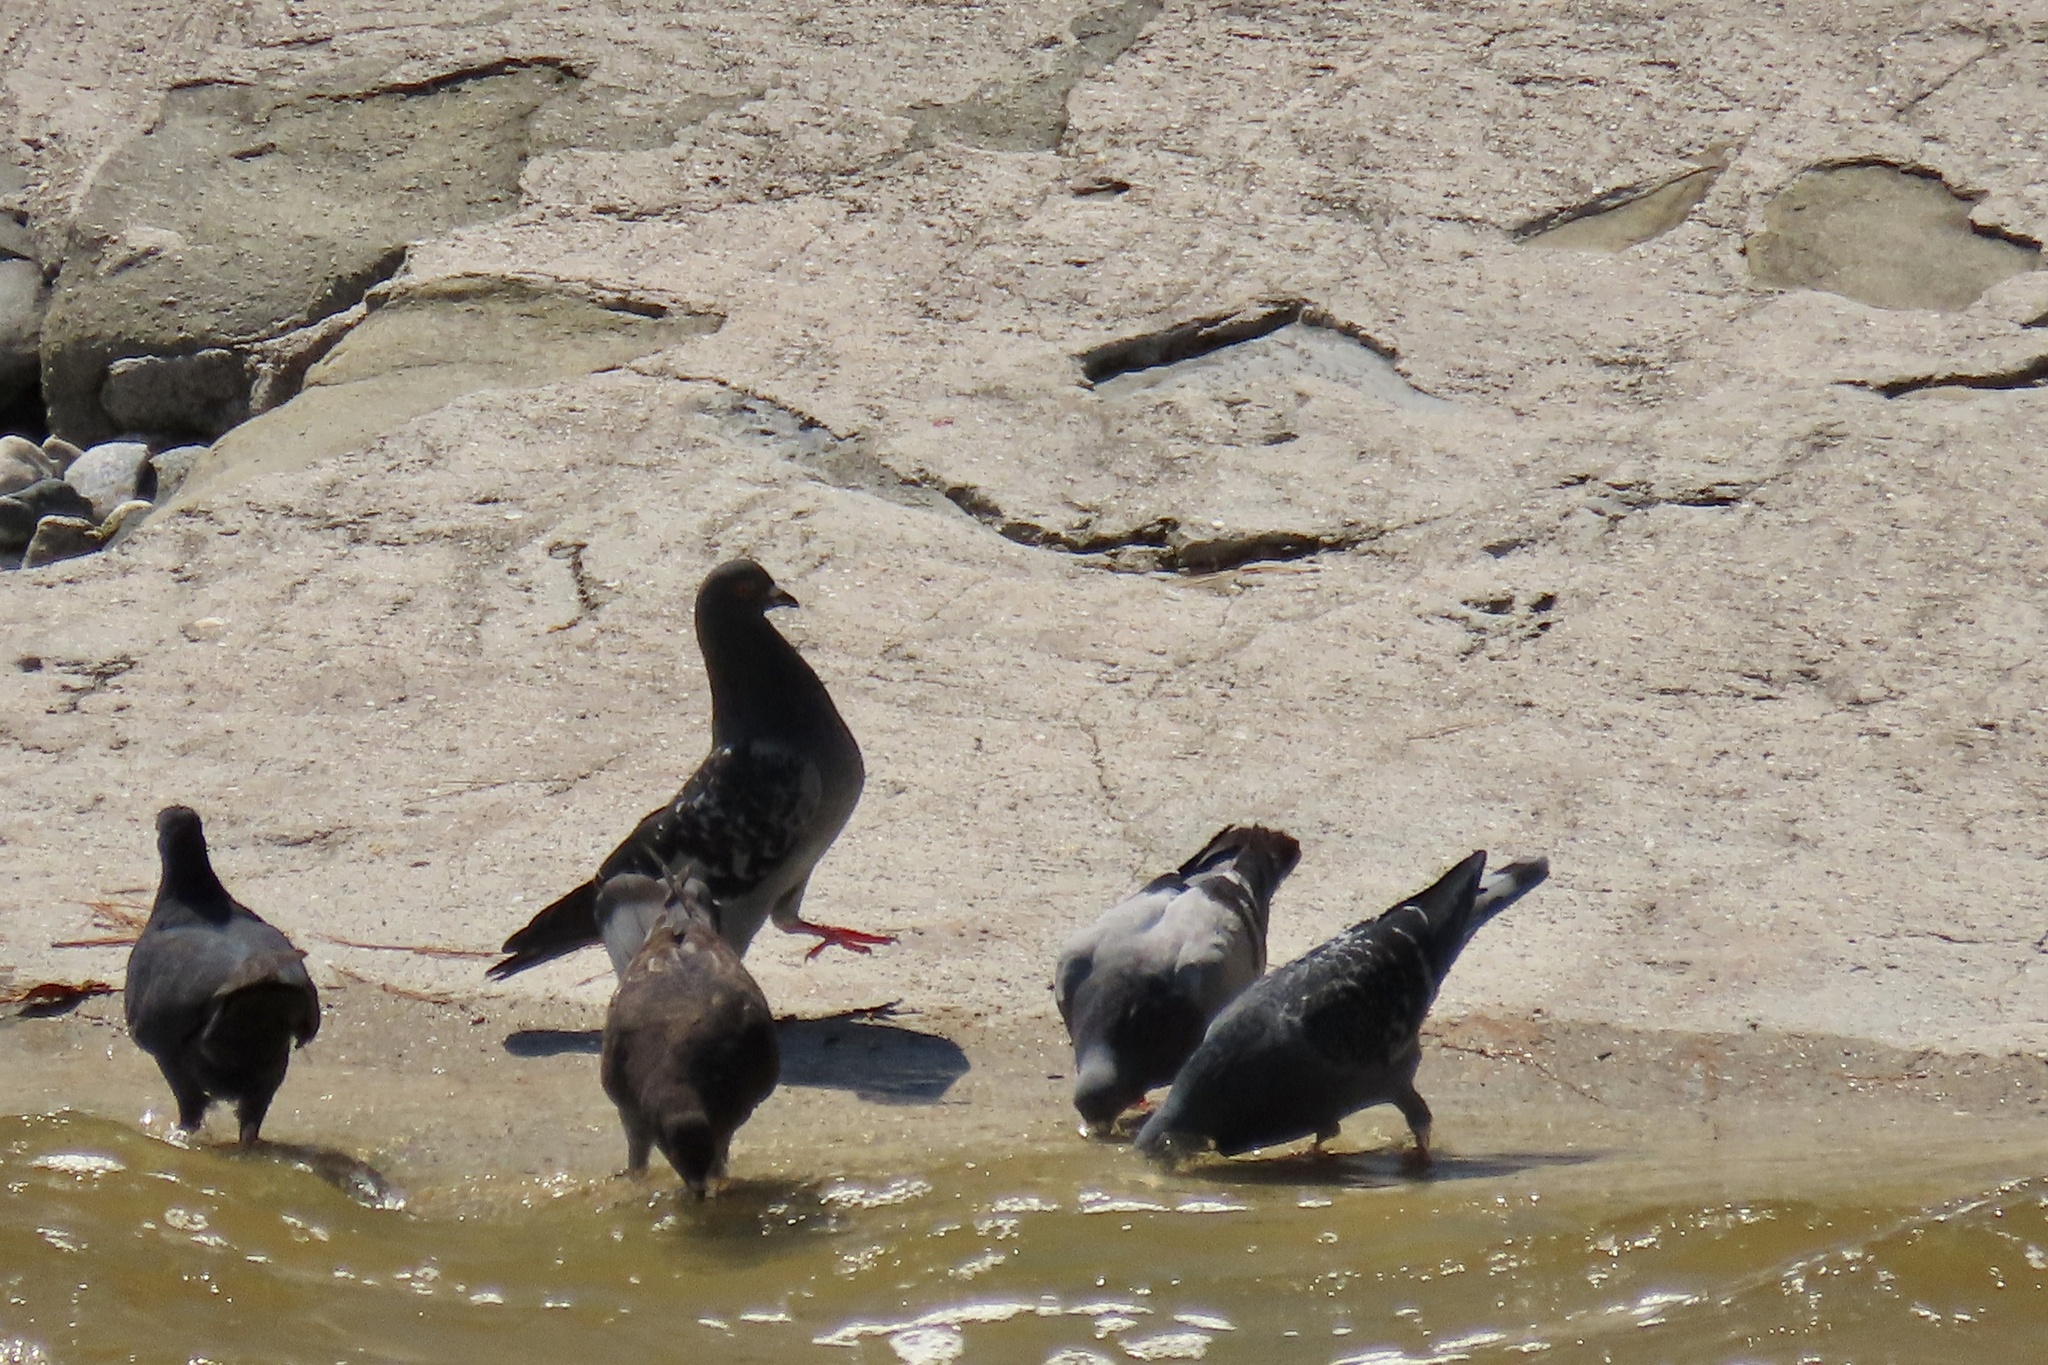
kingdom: Animalia
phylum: Chordata
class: Aves
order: Columbiformes
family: Columbidae
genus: Columba
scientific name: Columba livia
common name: Rock pigeon
